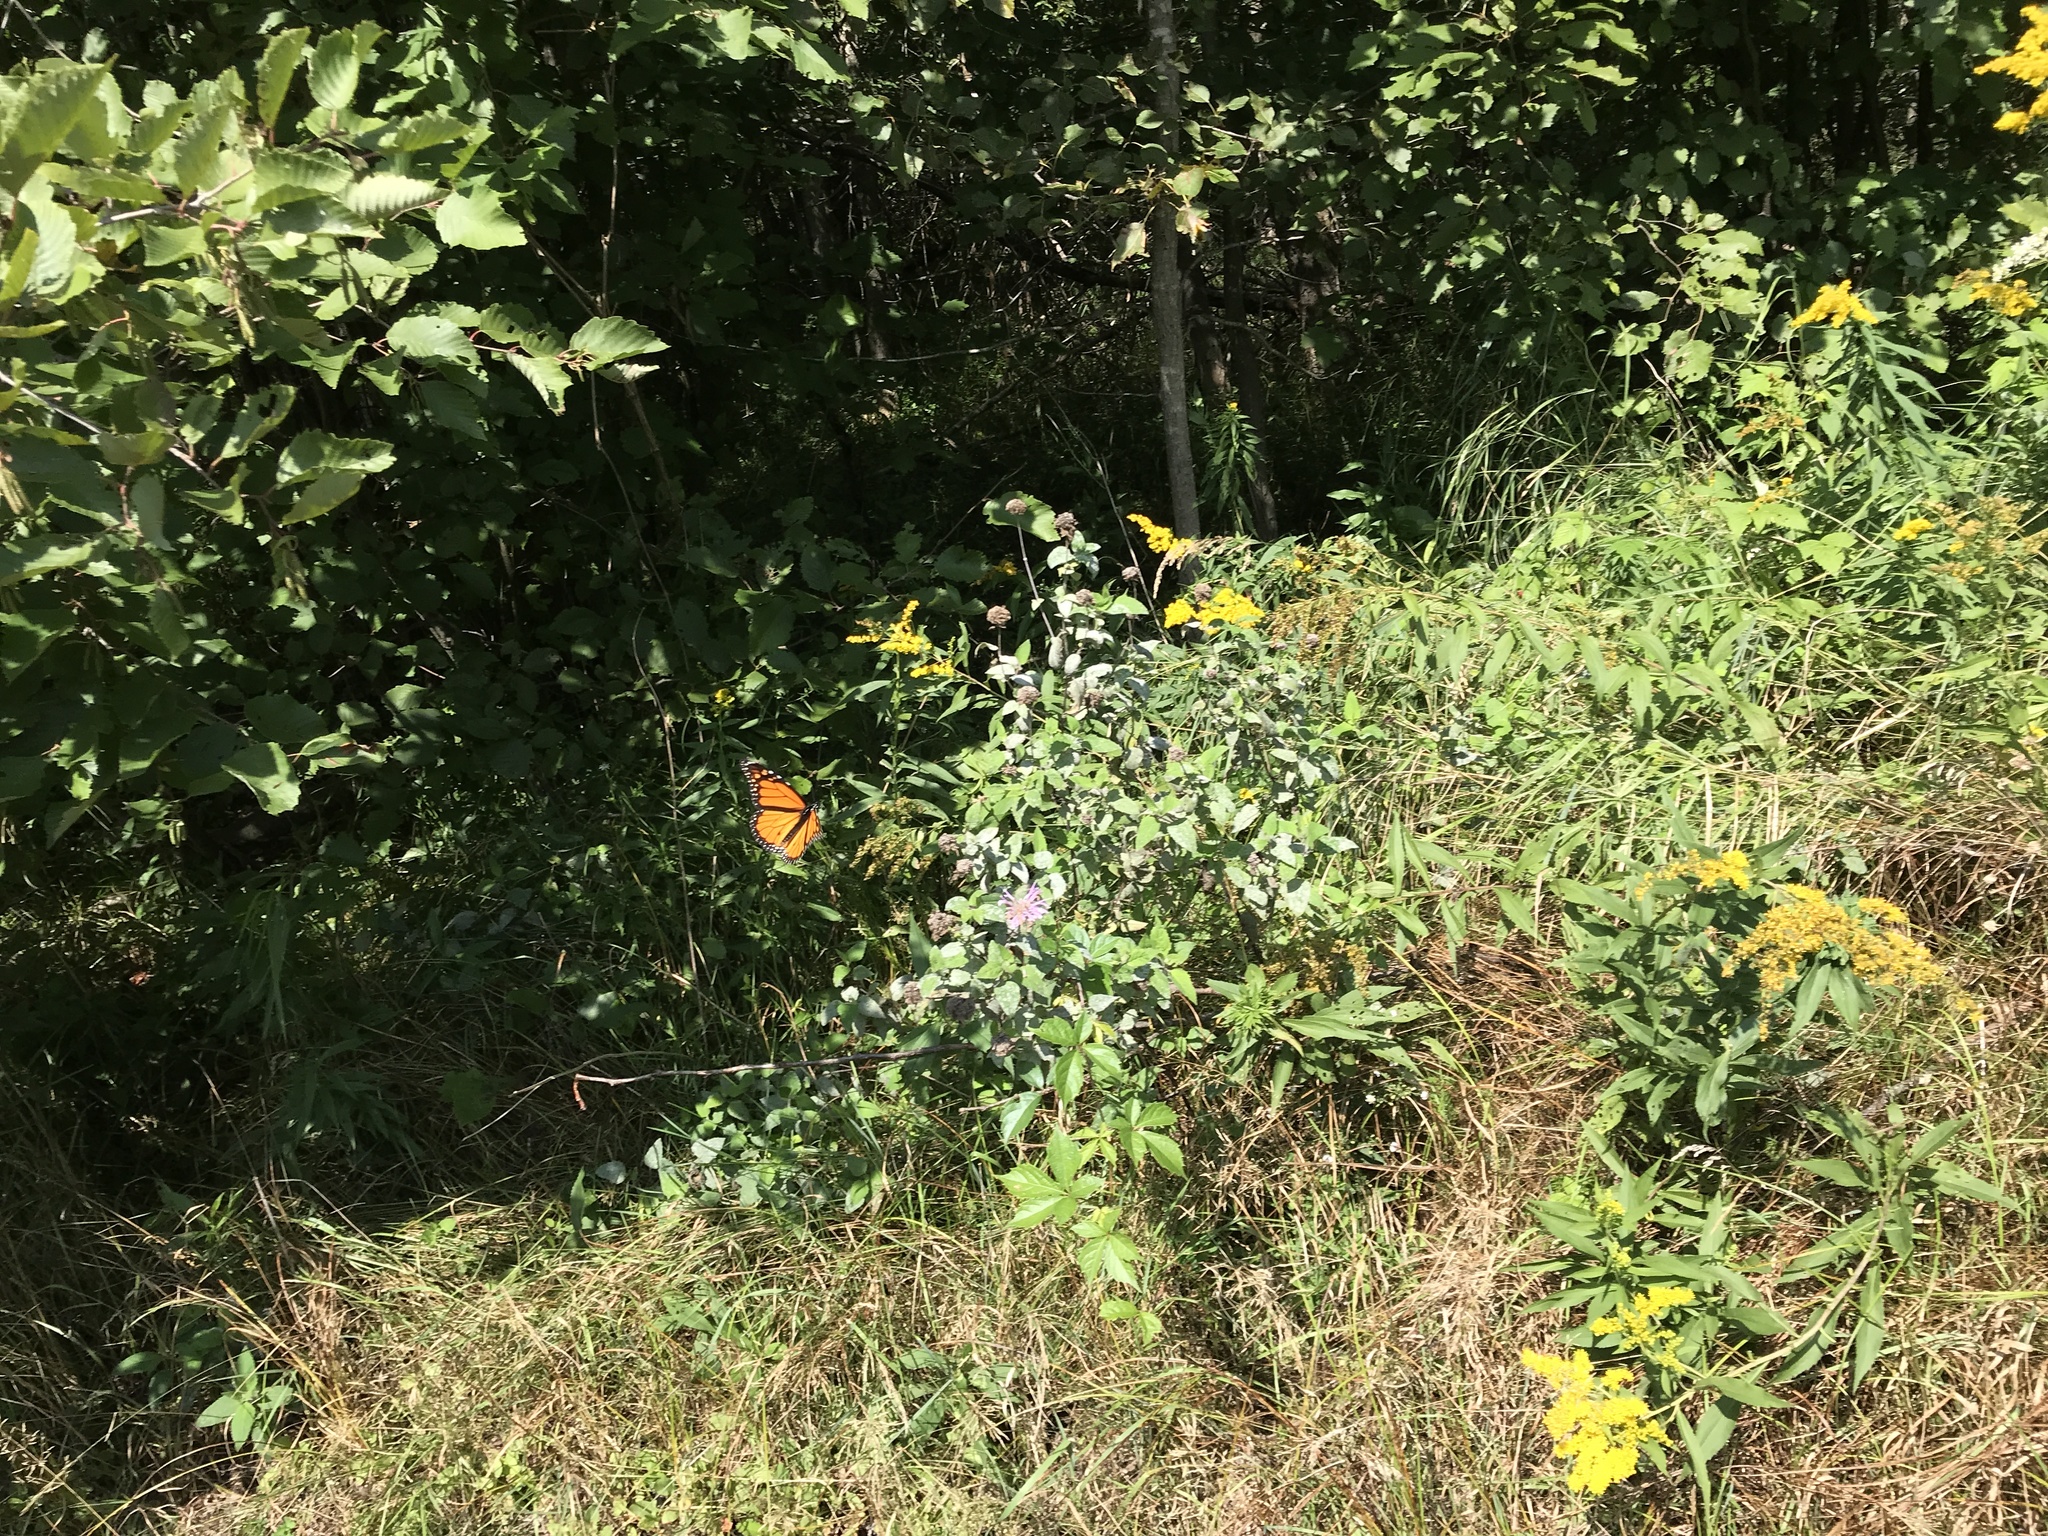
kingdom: Animalia
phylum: Arthropoda
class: Insecta
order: Lepidoptera
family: Nymphalidae
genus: Danaus
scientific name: Danaus plexippus
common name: Monarch
